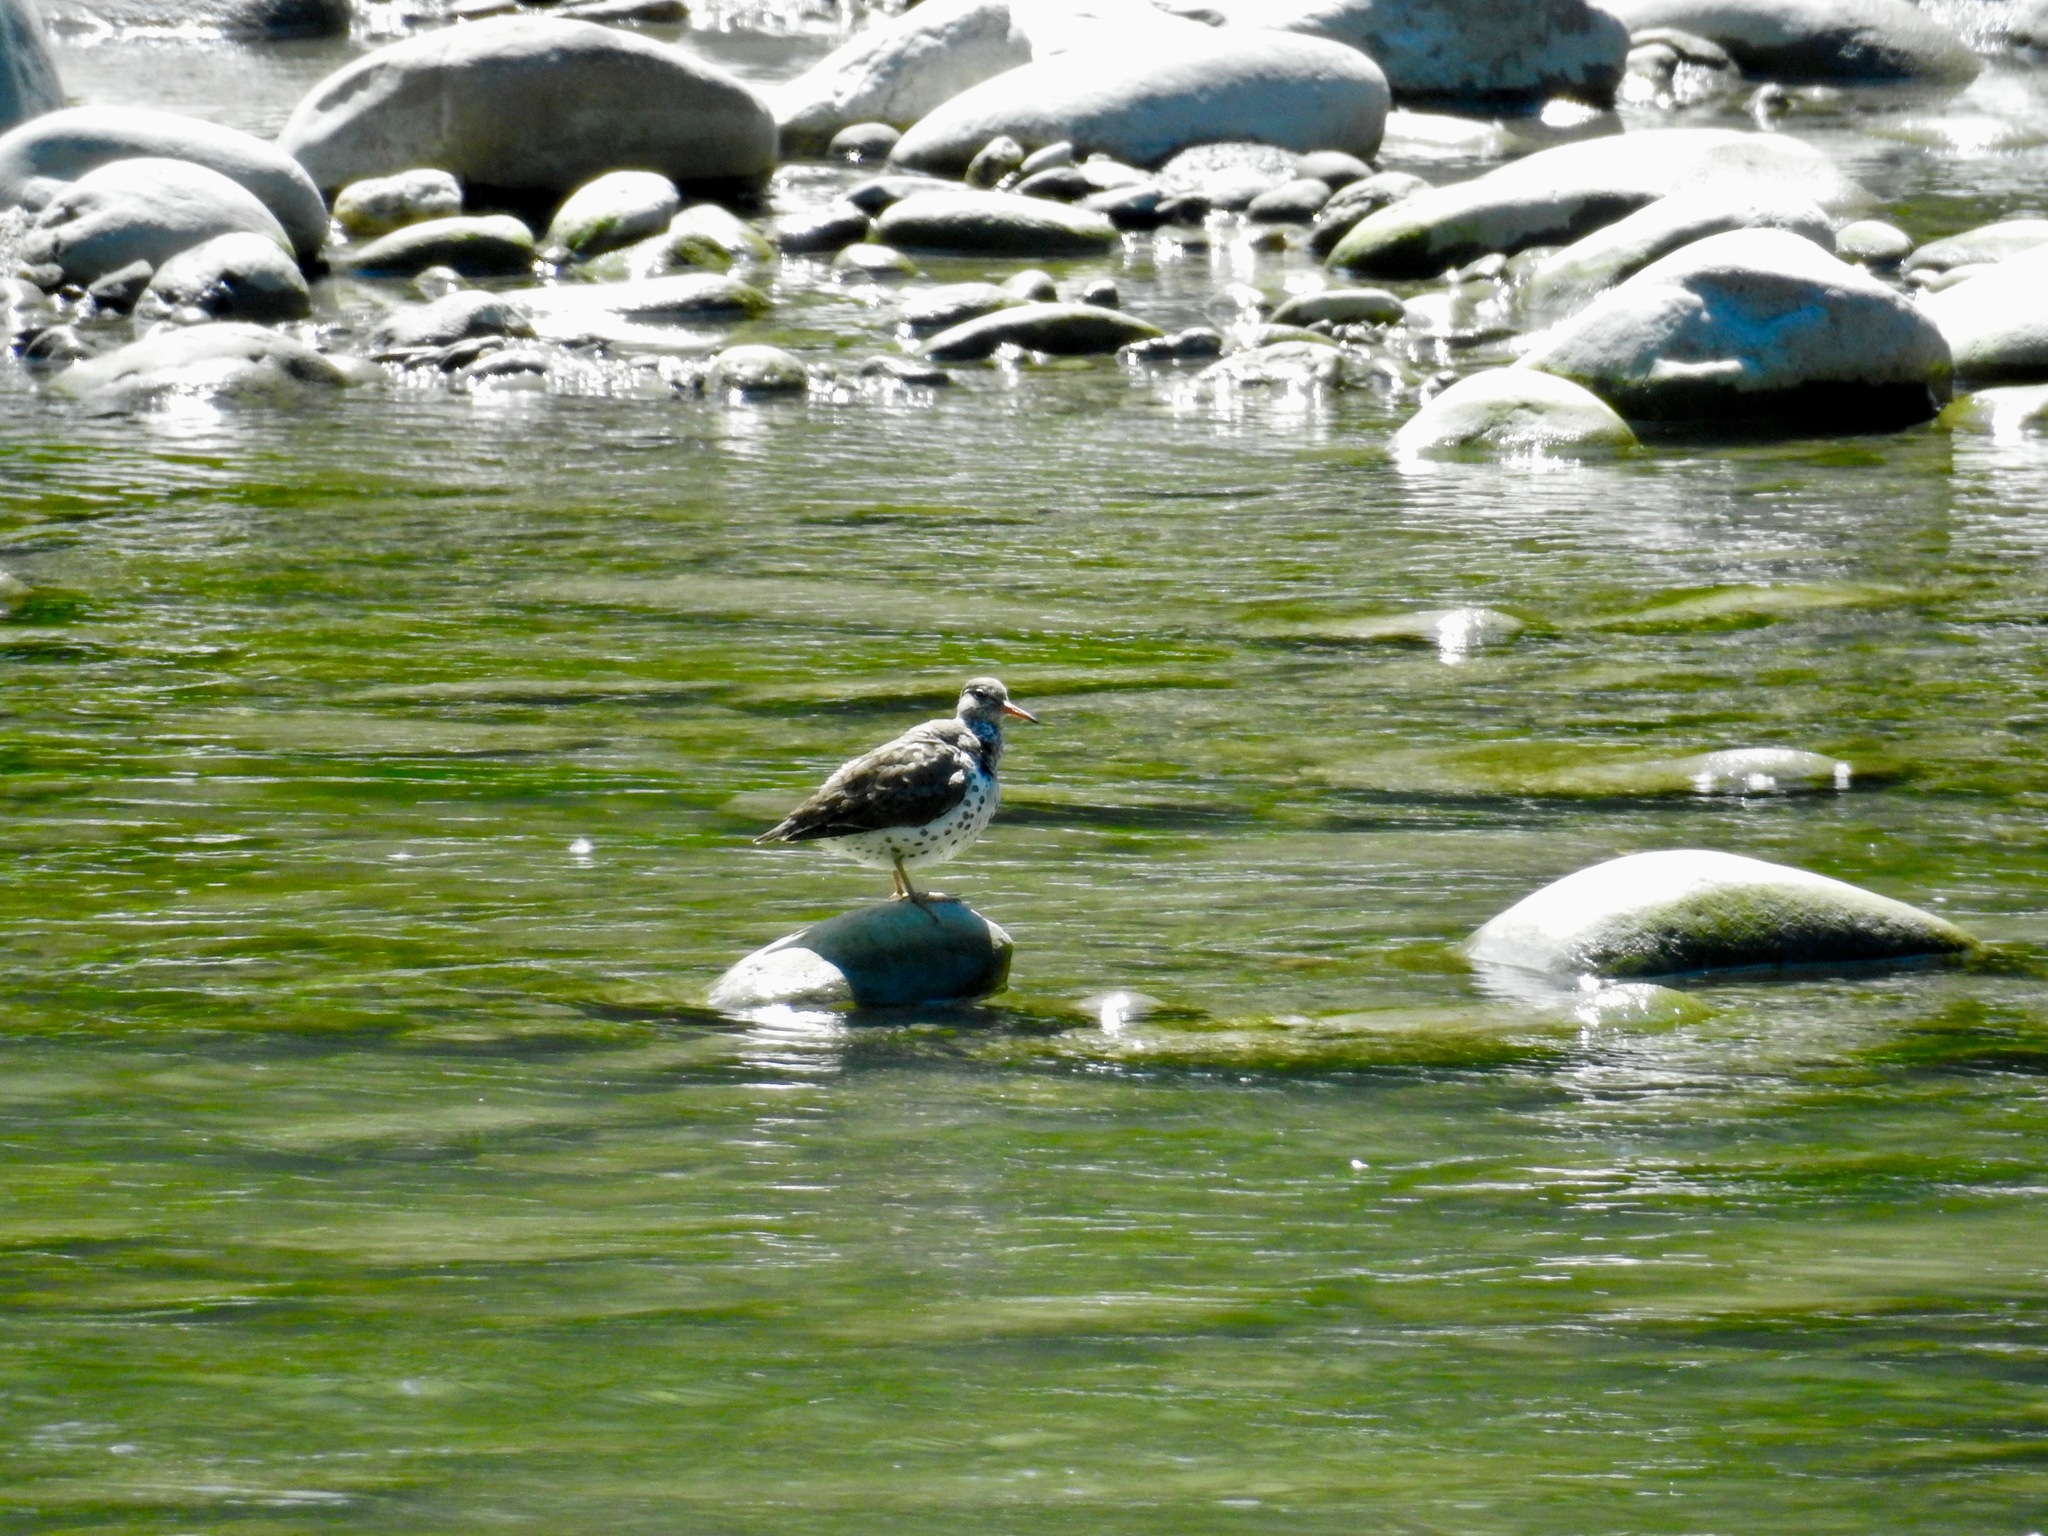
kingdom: Animalia
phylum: Chordata
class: Aves
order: Charadriiformes
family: Scolopacidae
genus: Actitis
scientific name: Actitis macularius
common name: Spotted sandpiper
